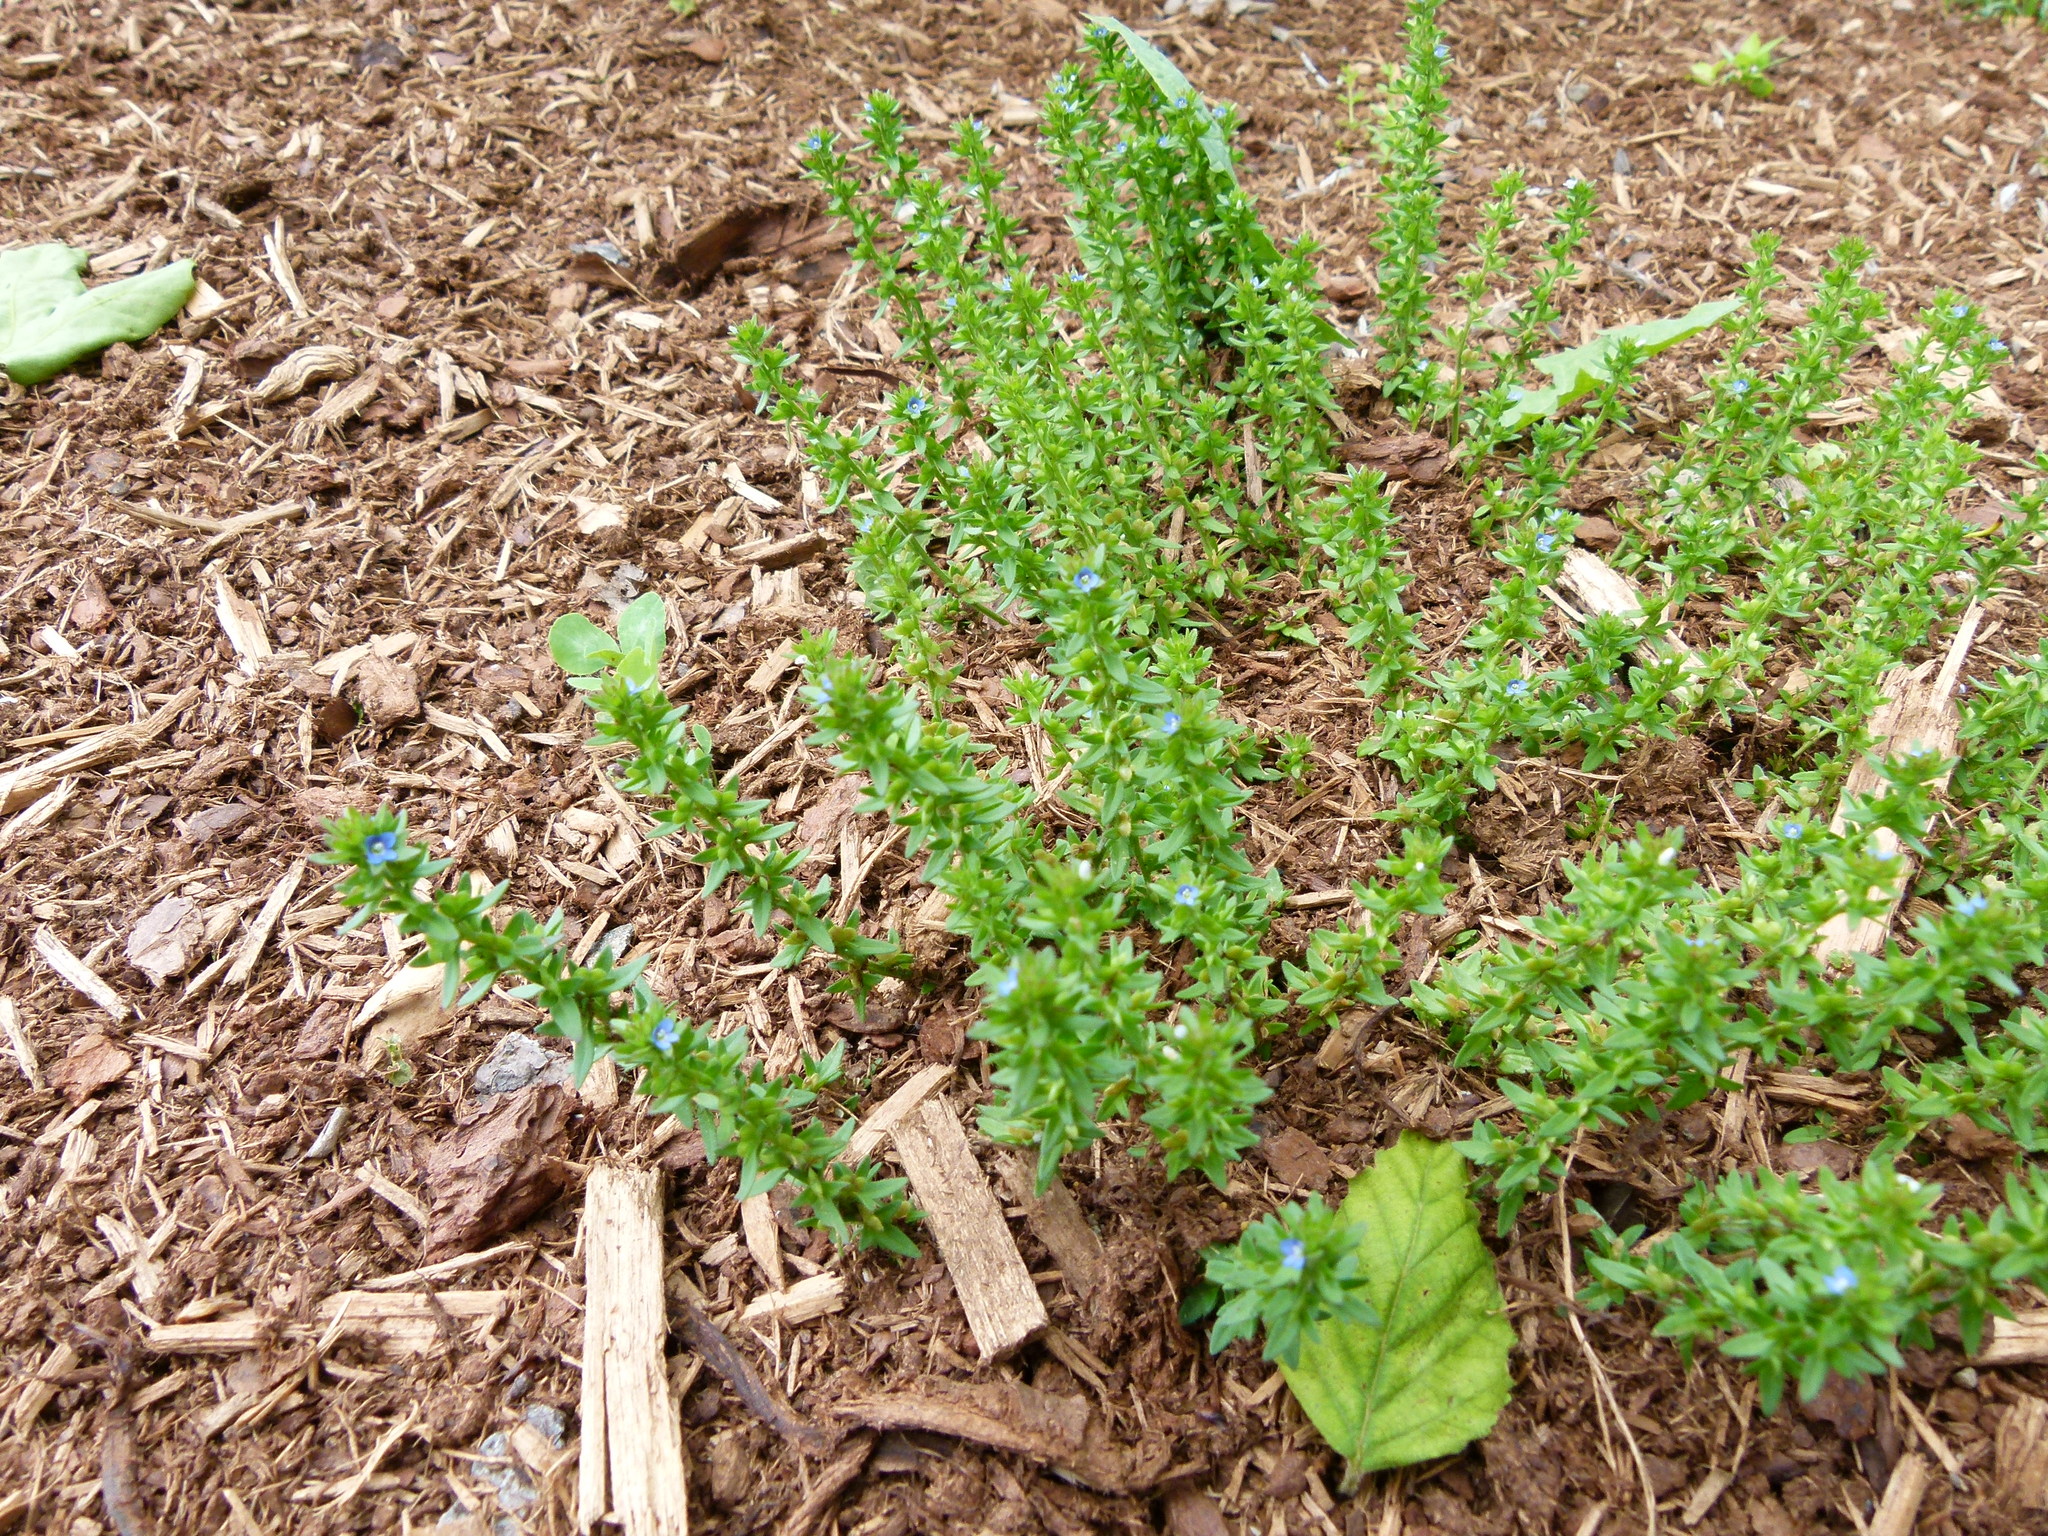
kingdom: Plantae
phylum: Tracheophyta
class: Magnoliopsida
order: Lamiales
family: Plantaginaceae
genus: Veronica
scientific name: Veronica arvensis
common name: Corn speedwell
